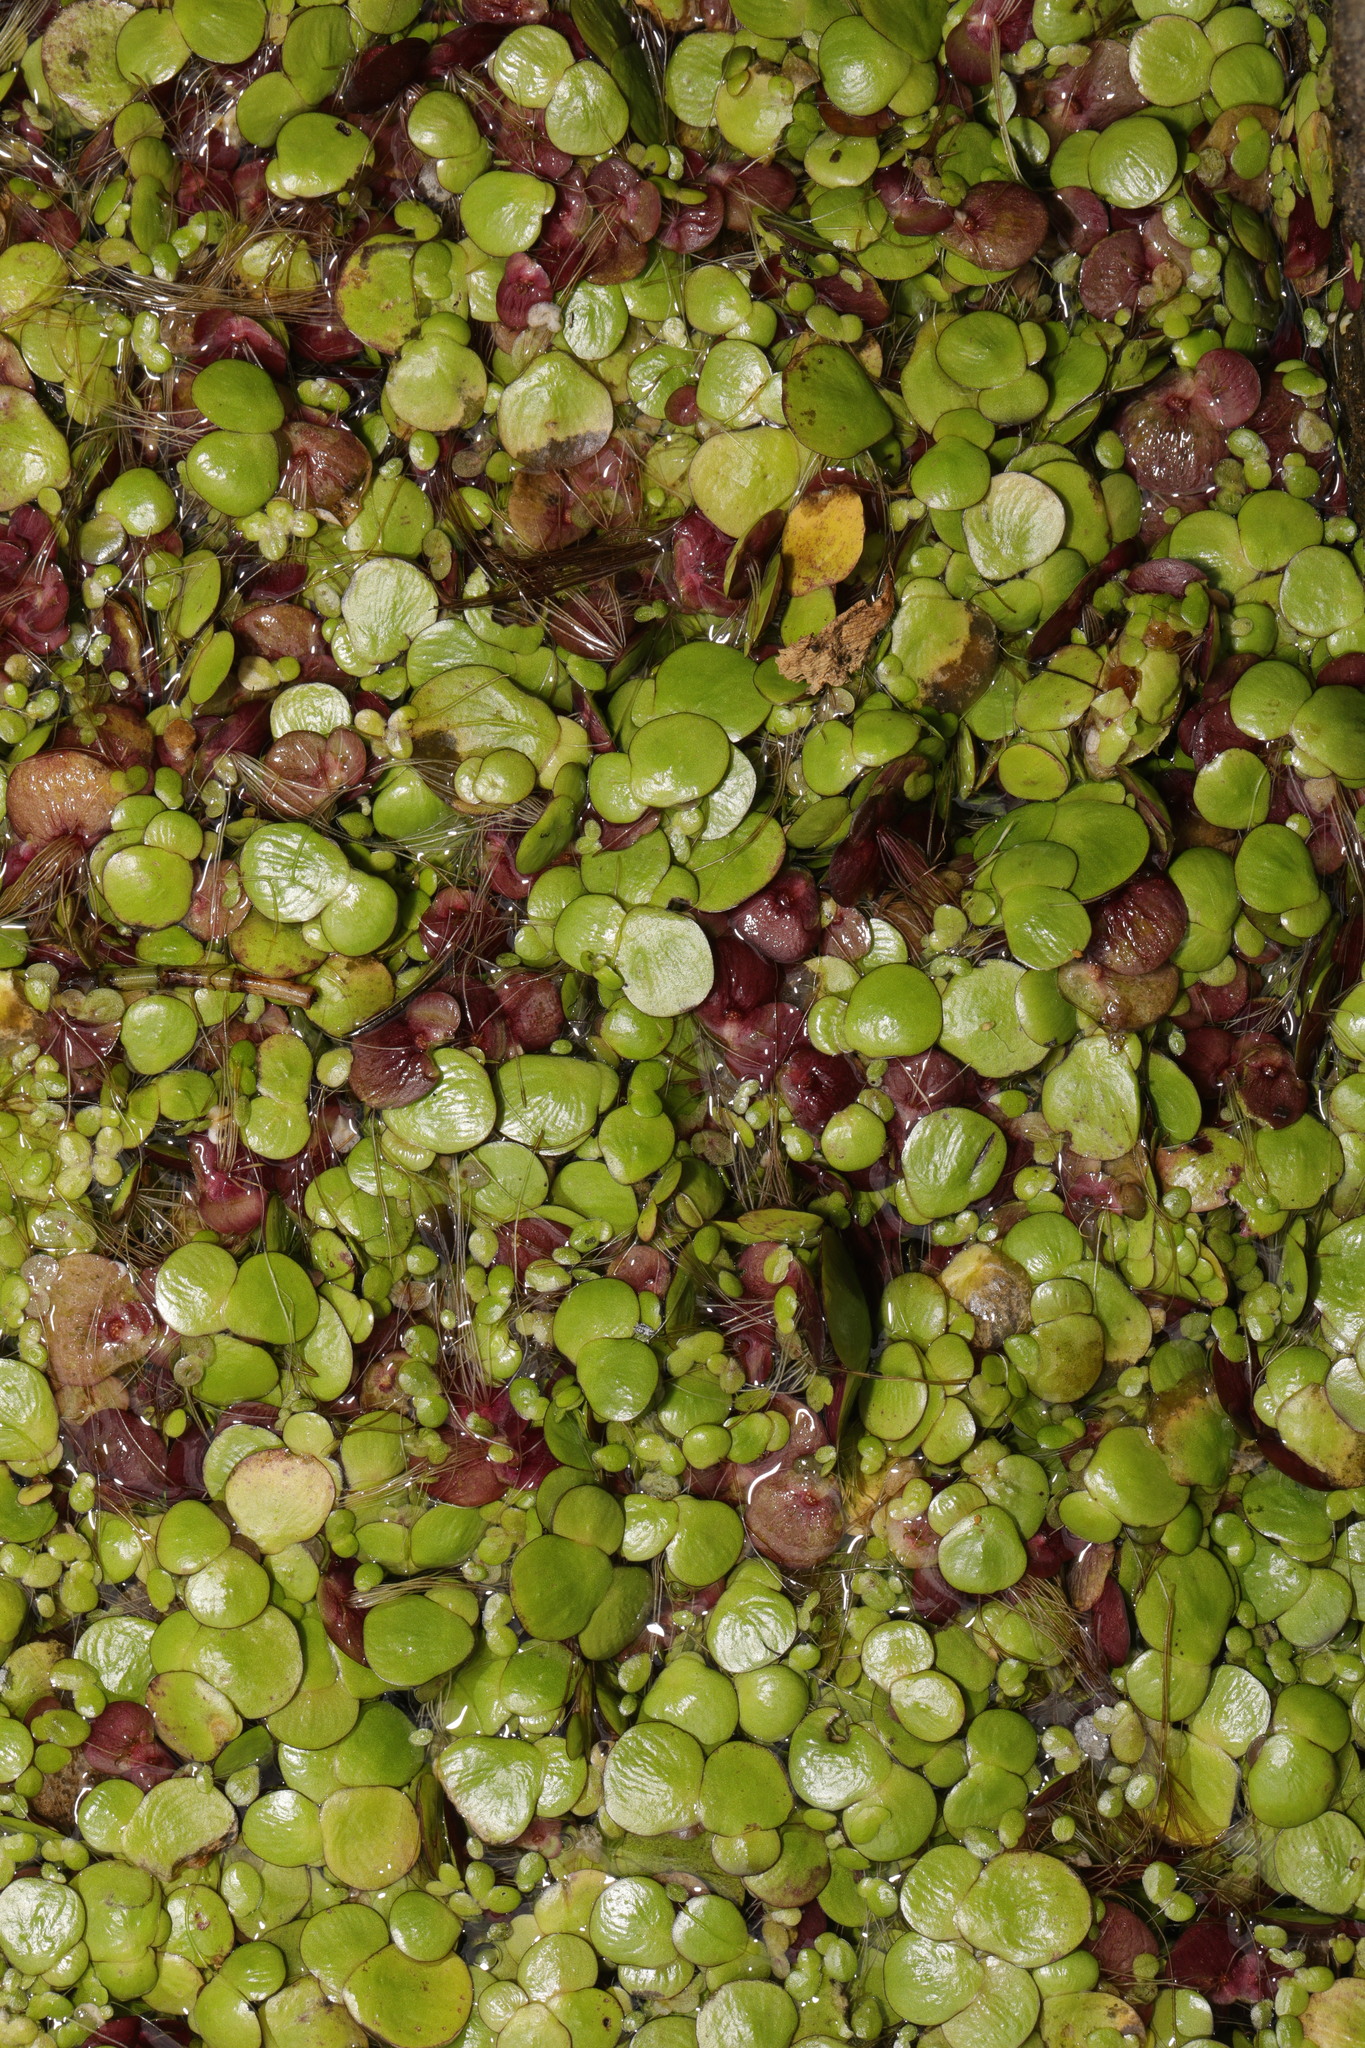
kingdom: Plantae
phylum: Tracheophyta
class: Liliopsida
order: Alismatales
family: Araceae
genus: Spirodela
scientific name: Spirodela polyrhiza
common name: Great duckweed
